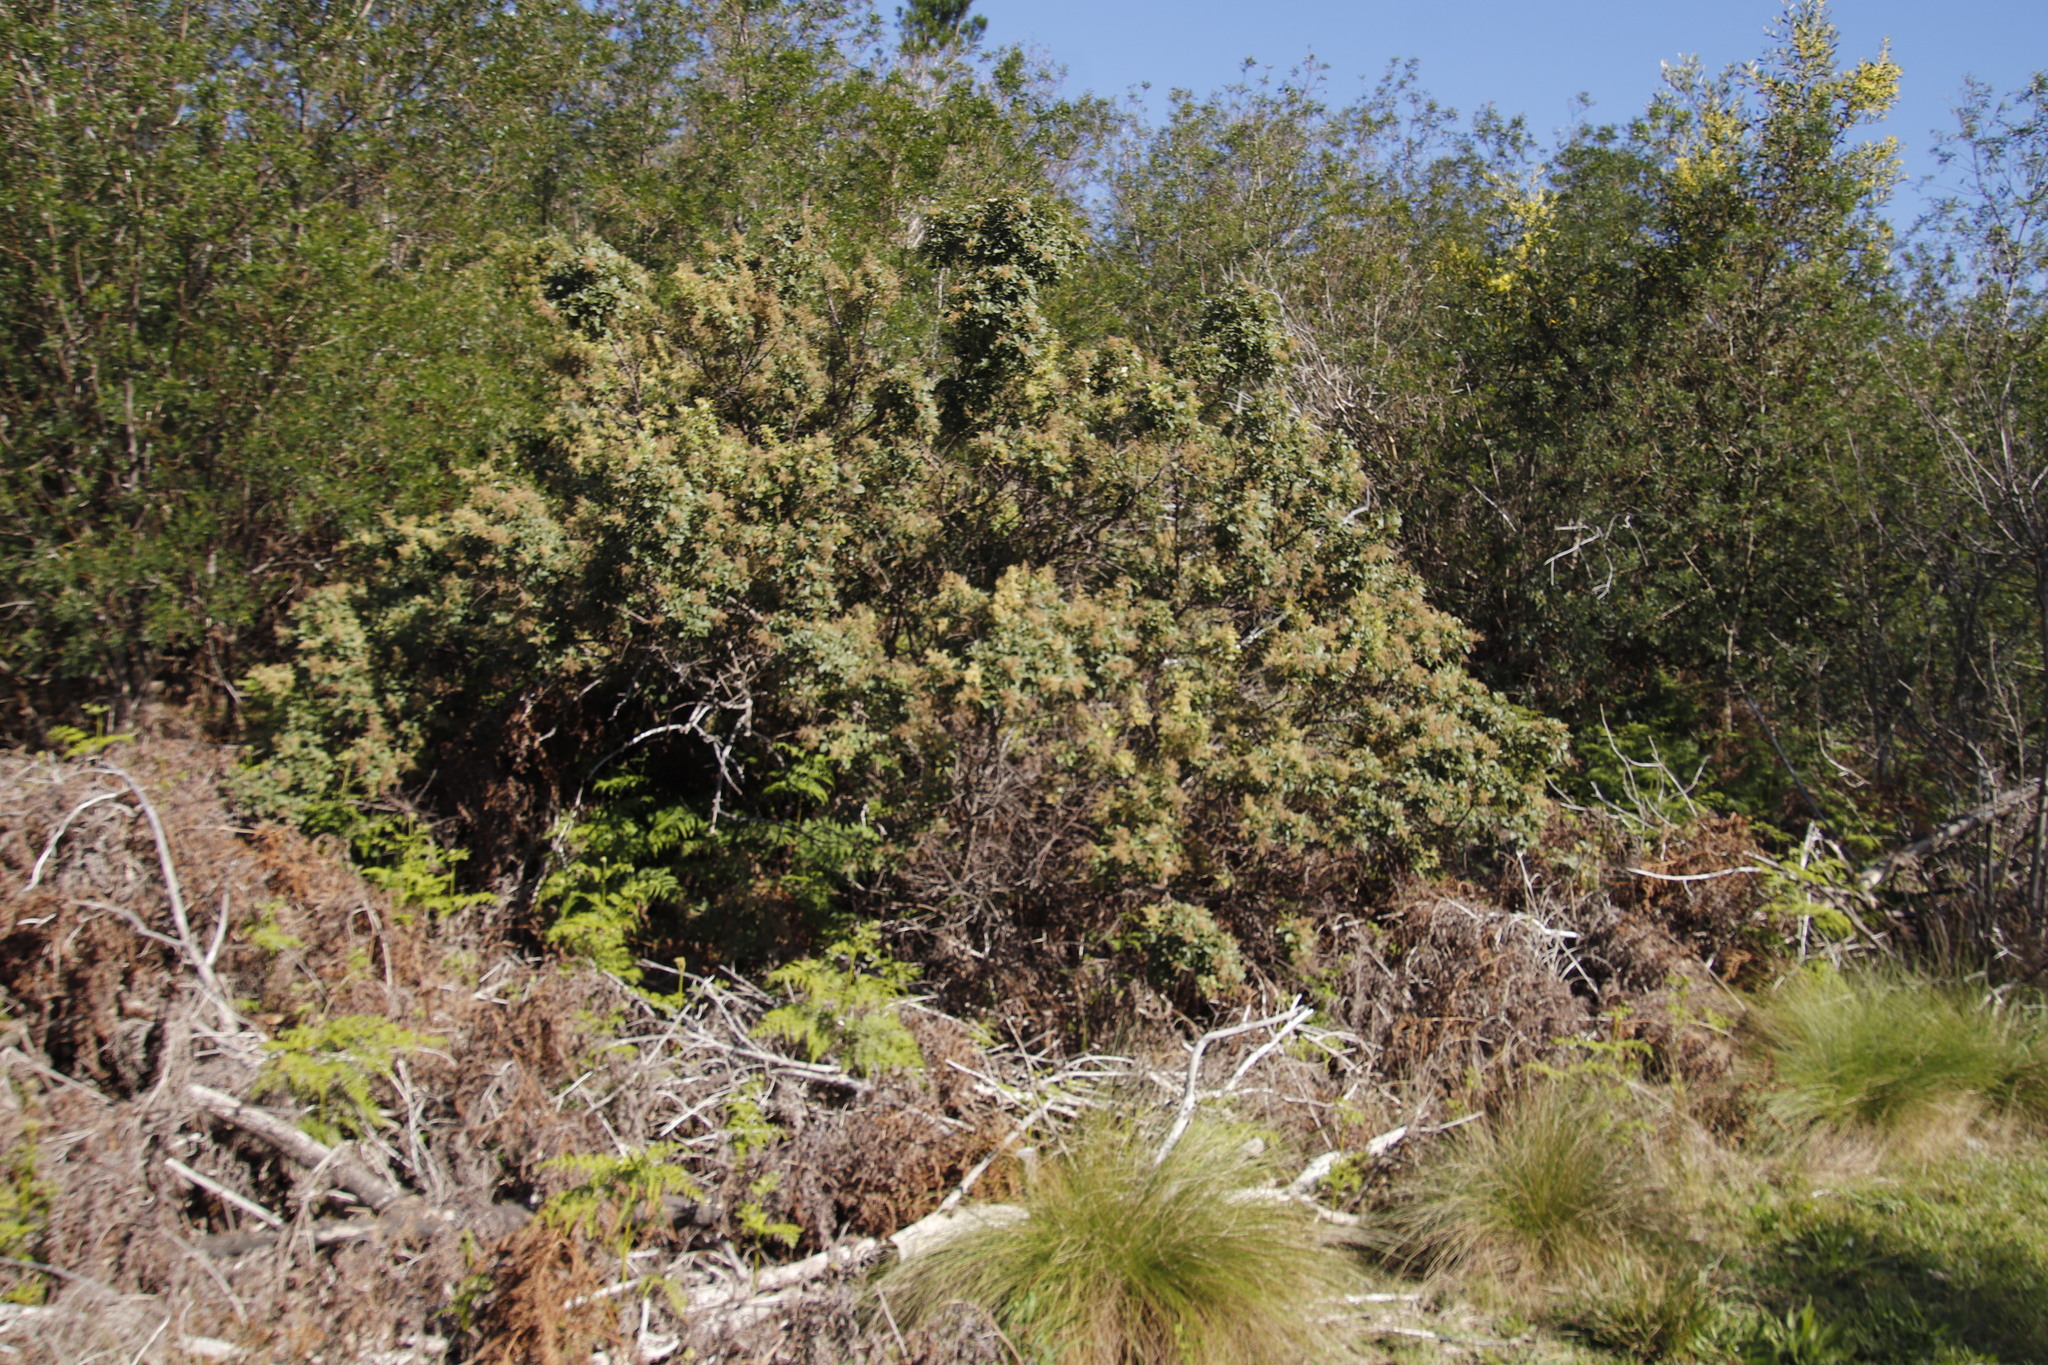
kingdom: Plantae
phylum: Tracheophyta
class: Magnoliopsida
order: Sapindales
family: Anacardiaceae
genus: Searsia
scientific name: Searsia tomentosa
